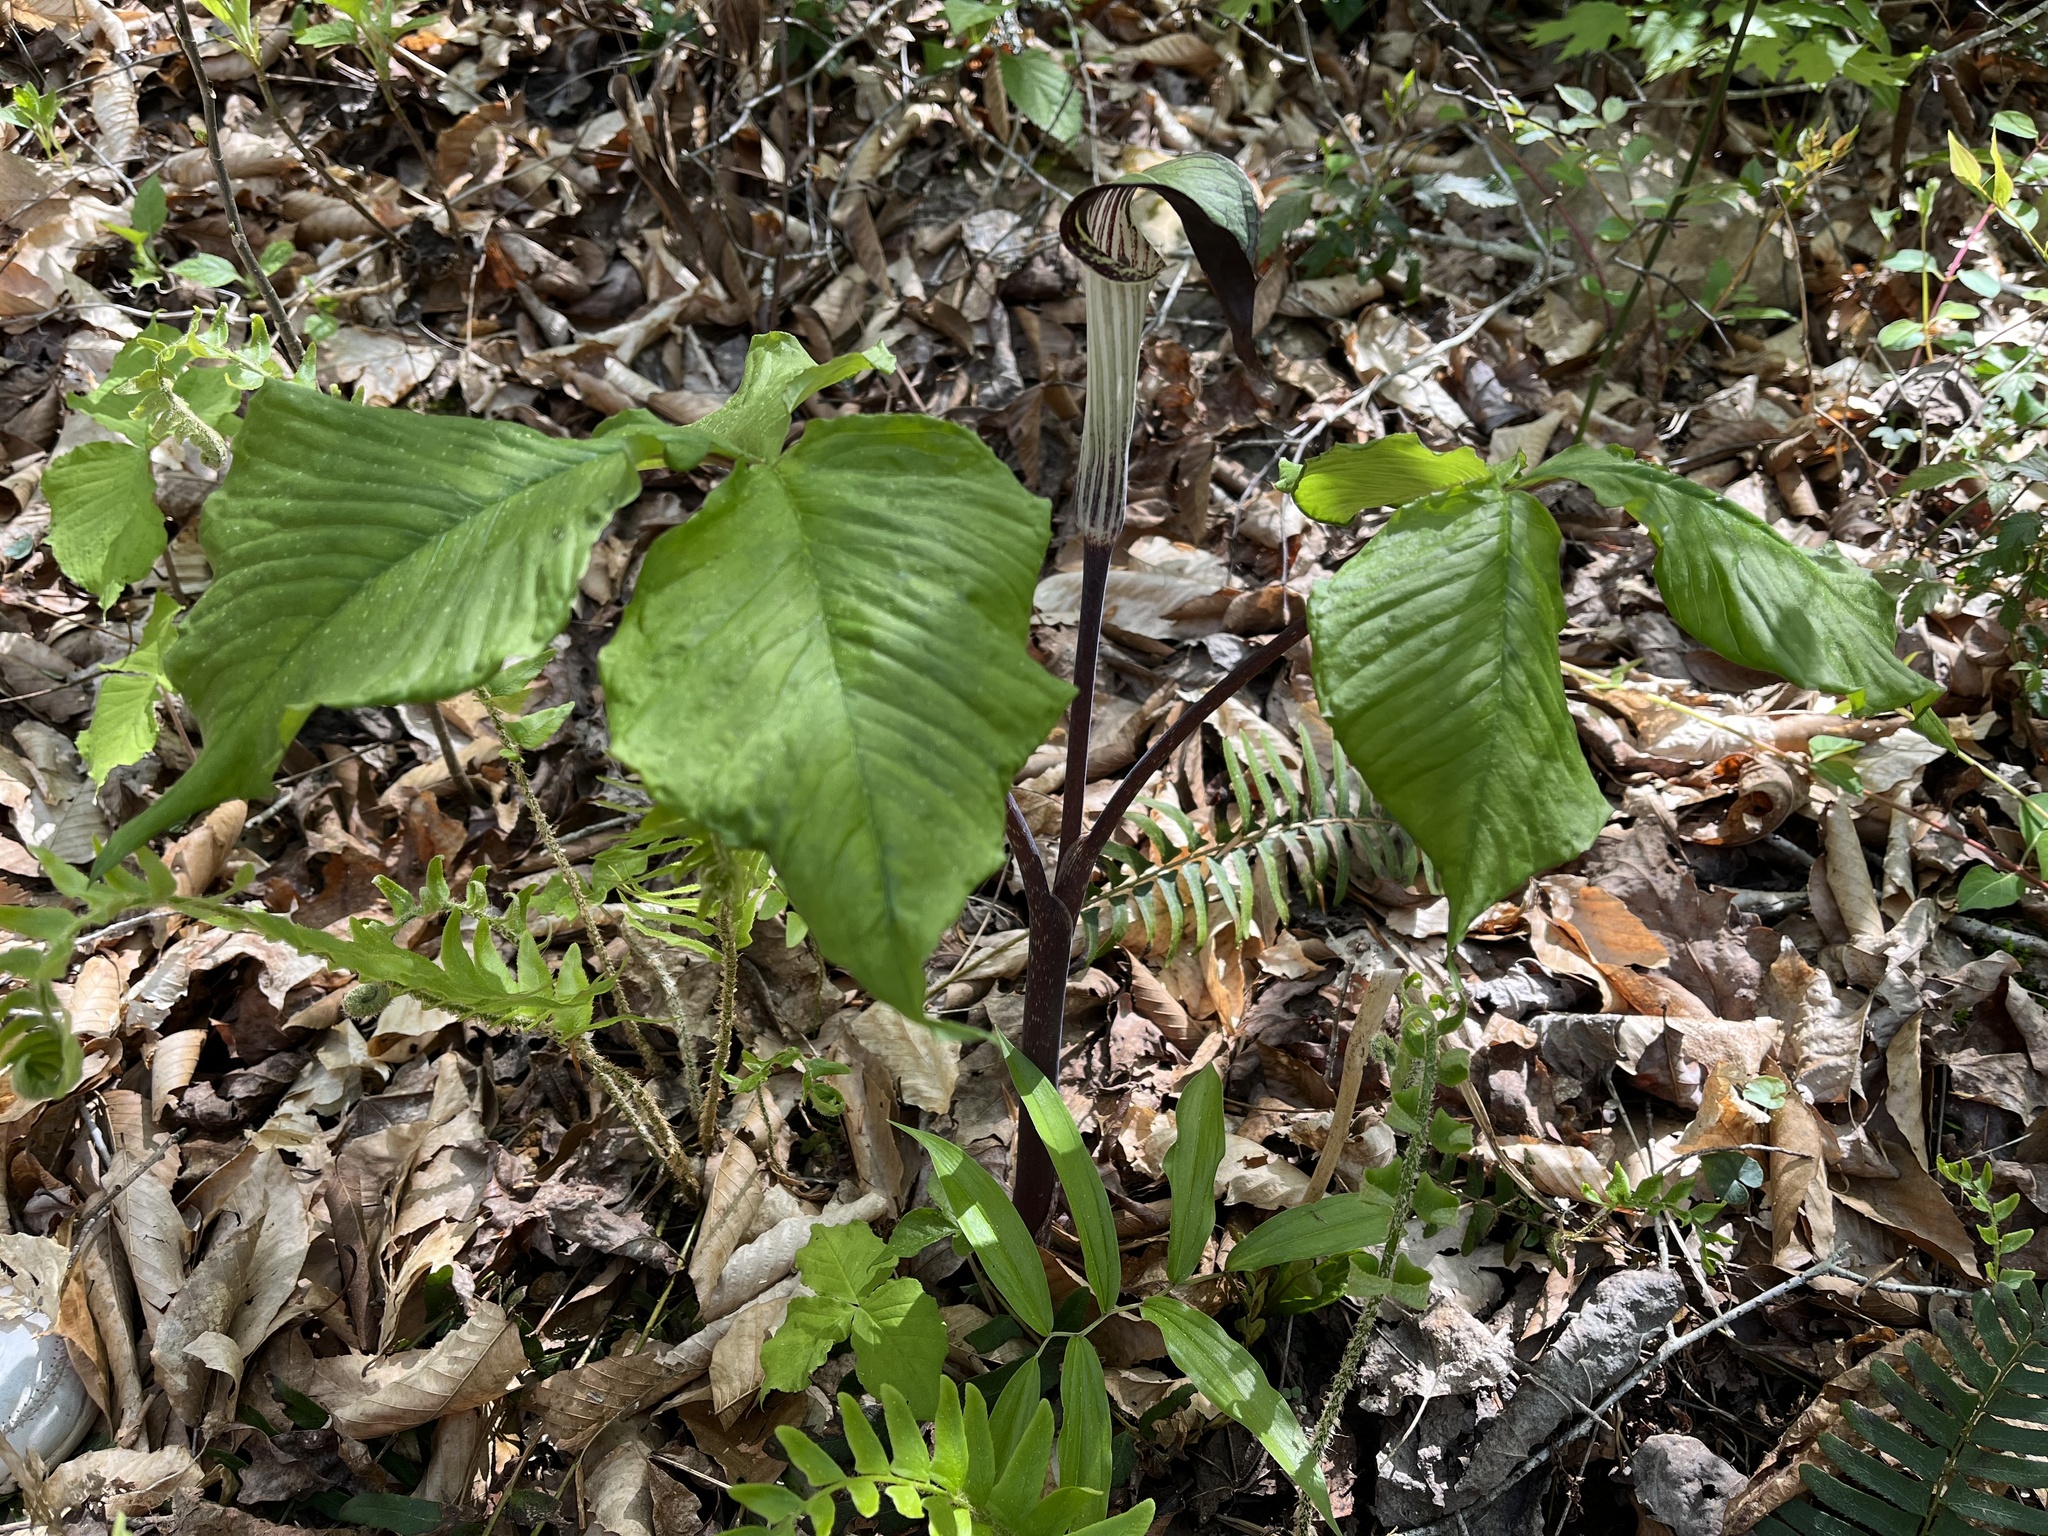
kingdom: Plantae
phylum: Tracheophyta
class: Liliopsida
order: Alismatales
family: Araceae
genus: Arisaema
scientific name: Arisaema triphyllum
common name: Jack-in-the-pulpit
